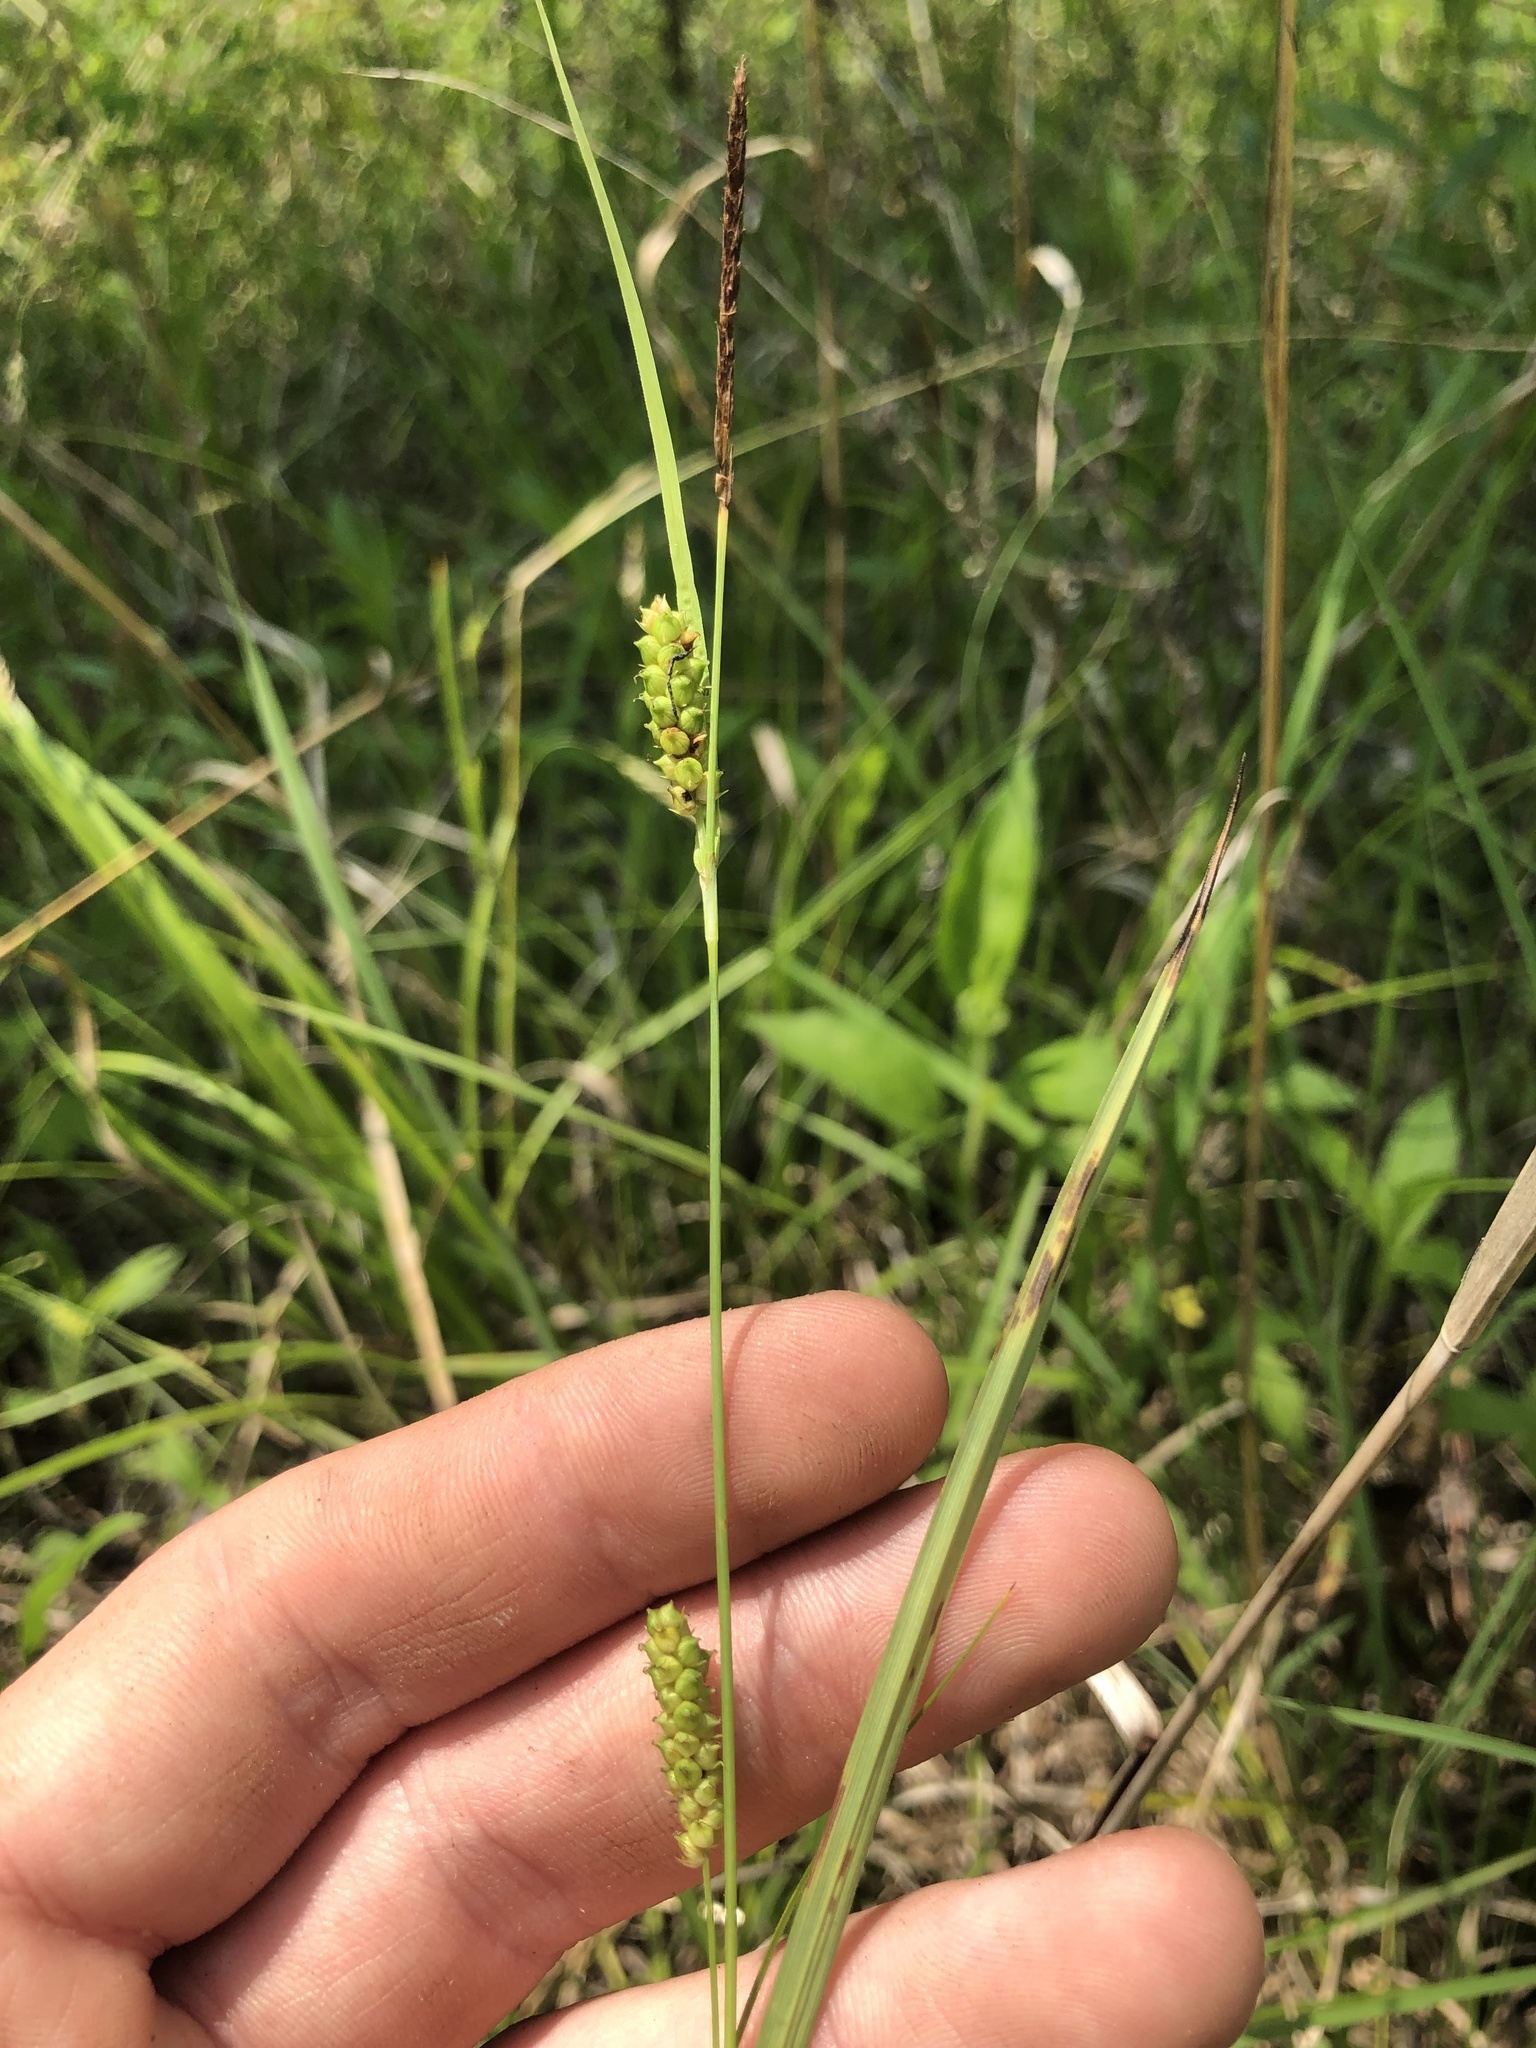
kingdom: Plantae
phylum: Tracheophyta
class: Liliopsida
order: Poales
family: Cyperaceae
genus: Carex
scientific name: Carex microdonta
